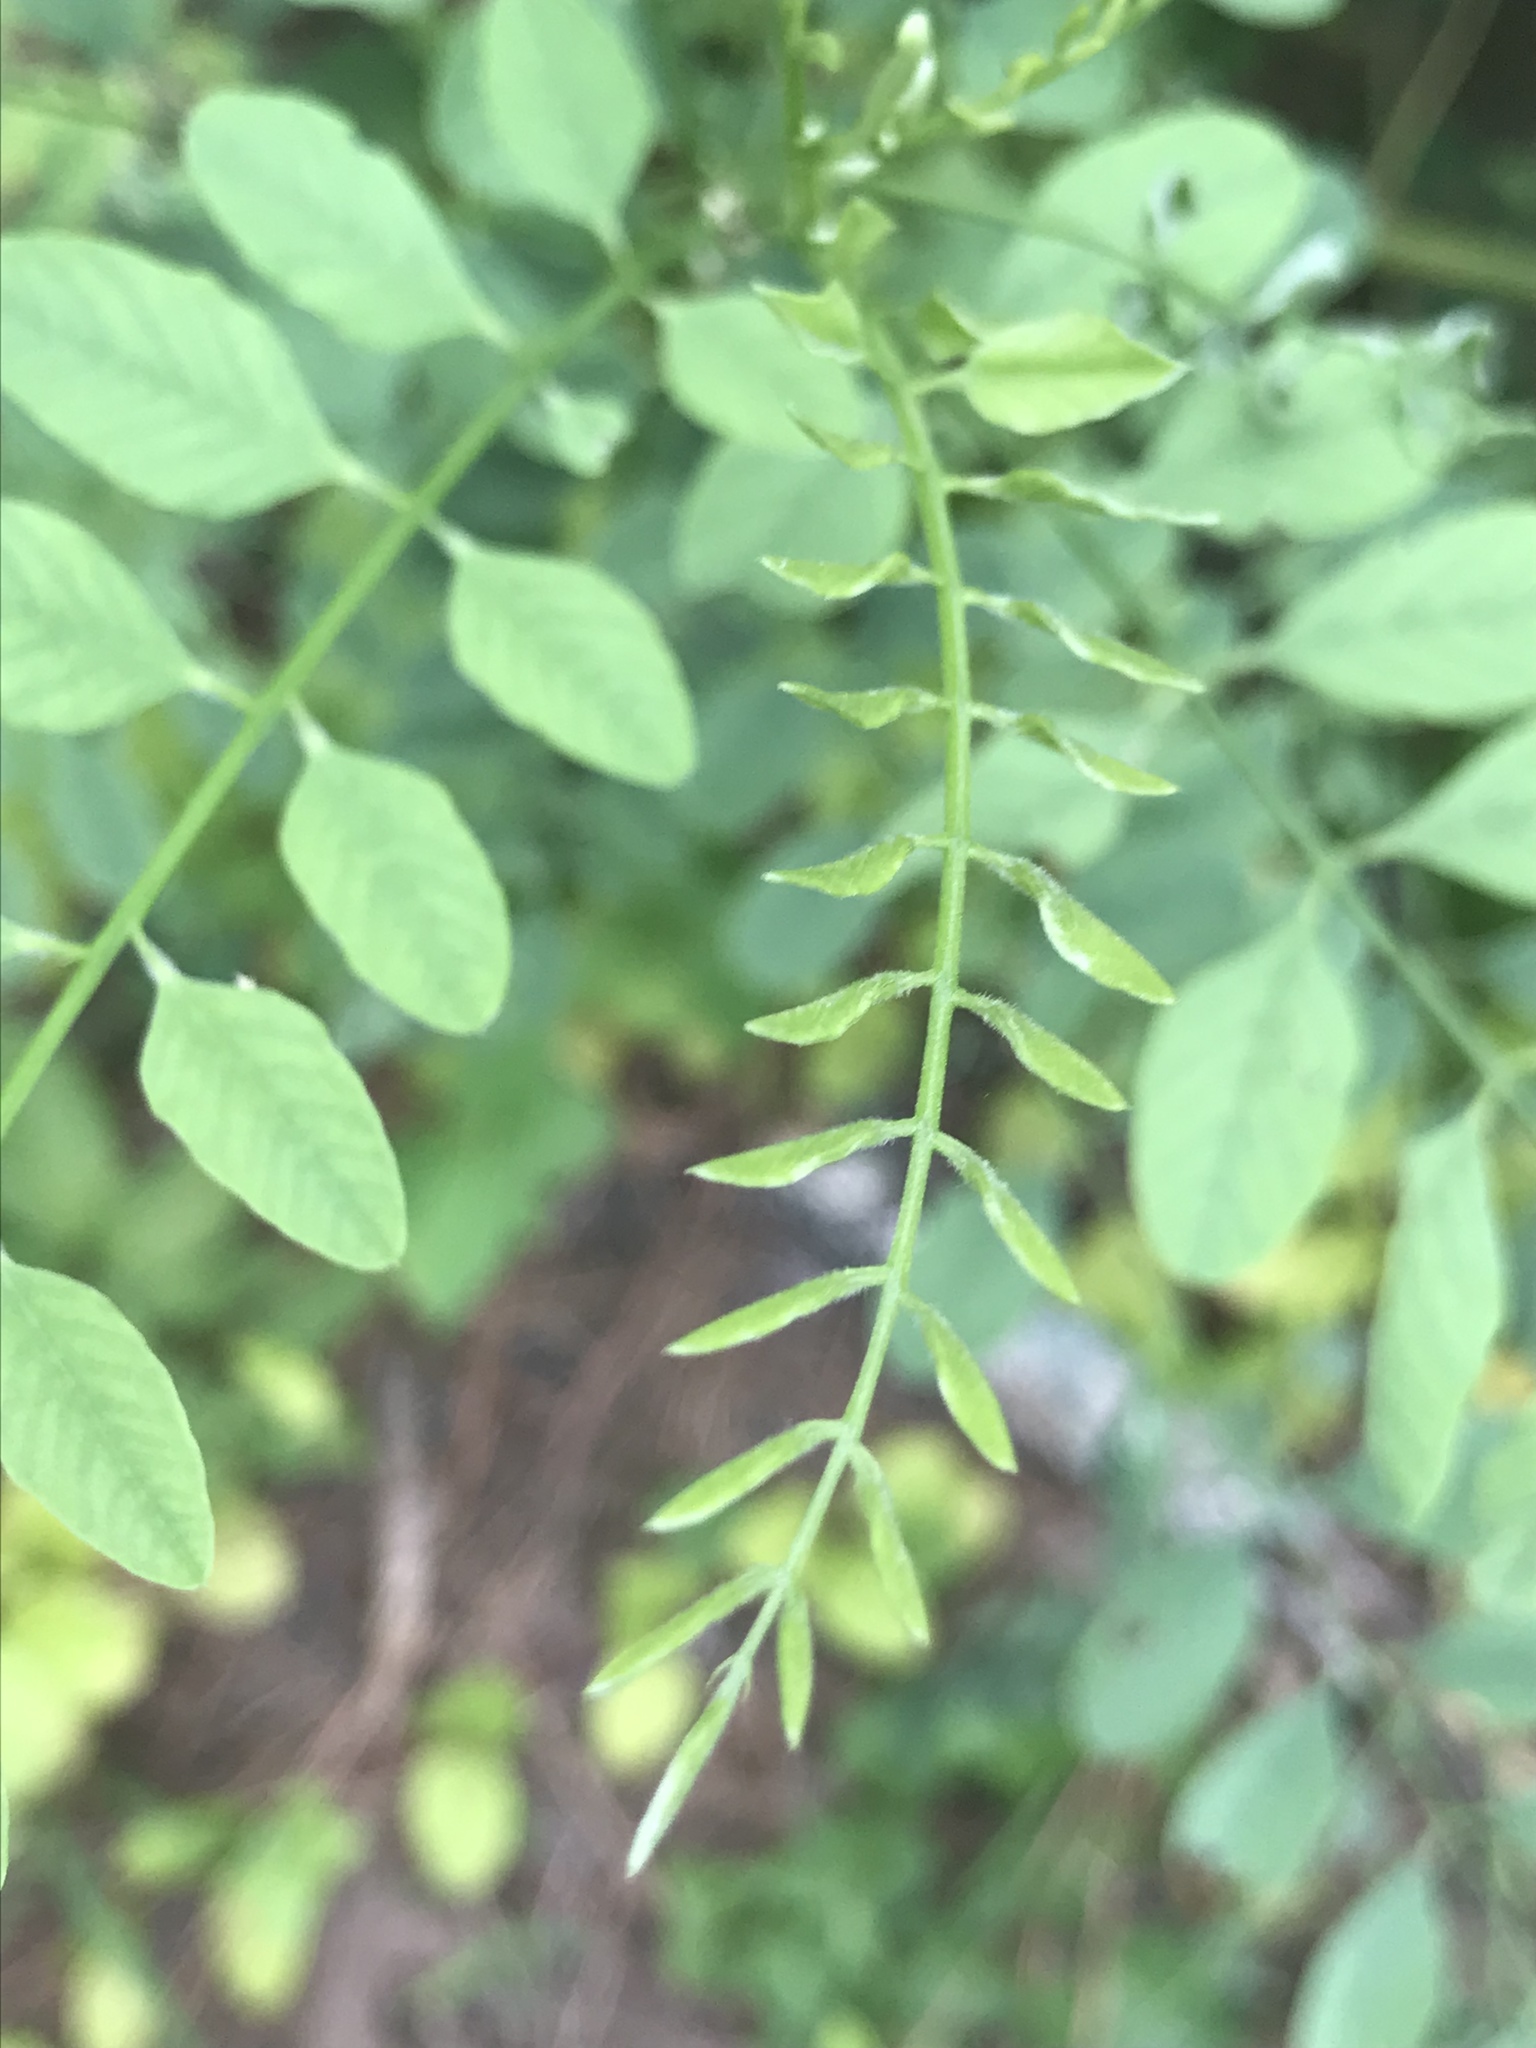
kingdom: Plantae
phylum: Tracheophyta
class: Magnoliopsida
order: Fabales
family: Fabaceae
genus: Gleditsia
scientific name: Gleditsia triacanthos
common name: Common honeylocust
